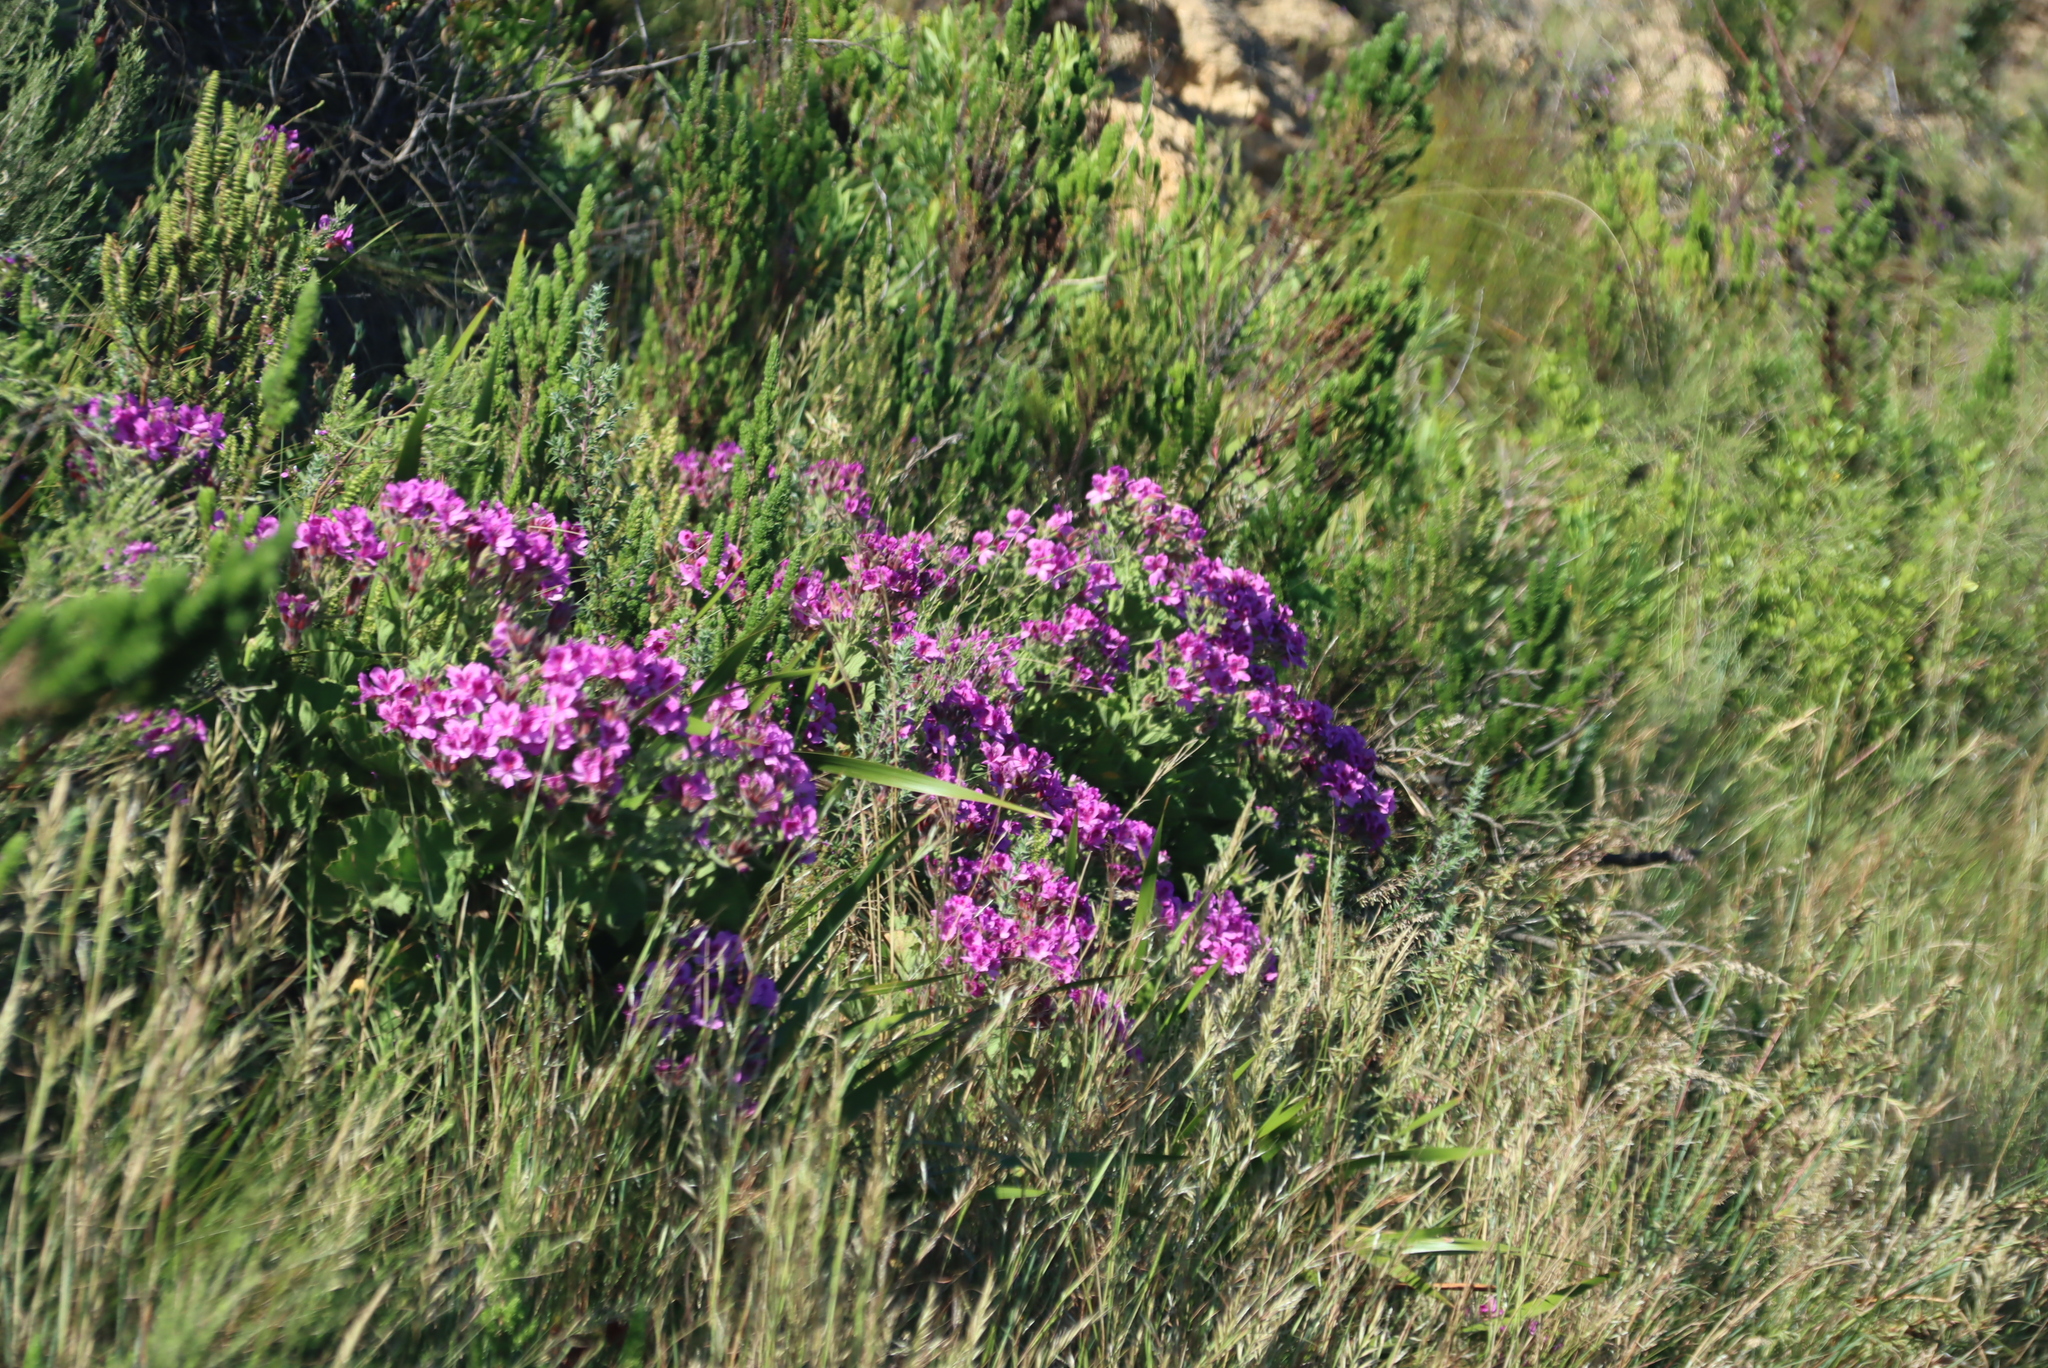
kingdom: Plantae
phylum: Tracheophyta
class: Magnoliopsida
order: Geraniales
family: Geraniaceae
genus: Pelargonium
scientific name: Pelargonium cucullatum
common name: Tree pelargonium
